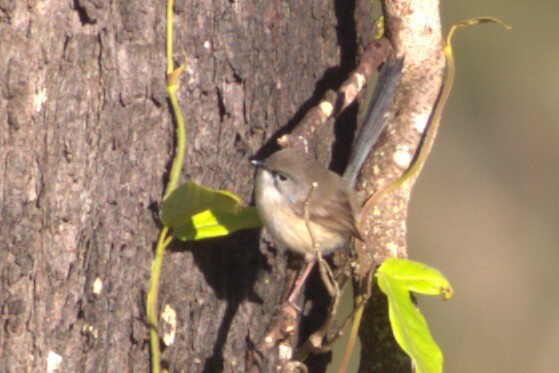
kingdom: Animalia
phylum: Chordata
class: Aves
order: Passeriformes
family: Maluridae
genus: Malurus
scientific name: Malurus cyaneus
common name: Superb fairywren
